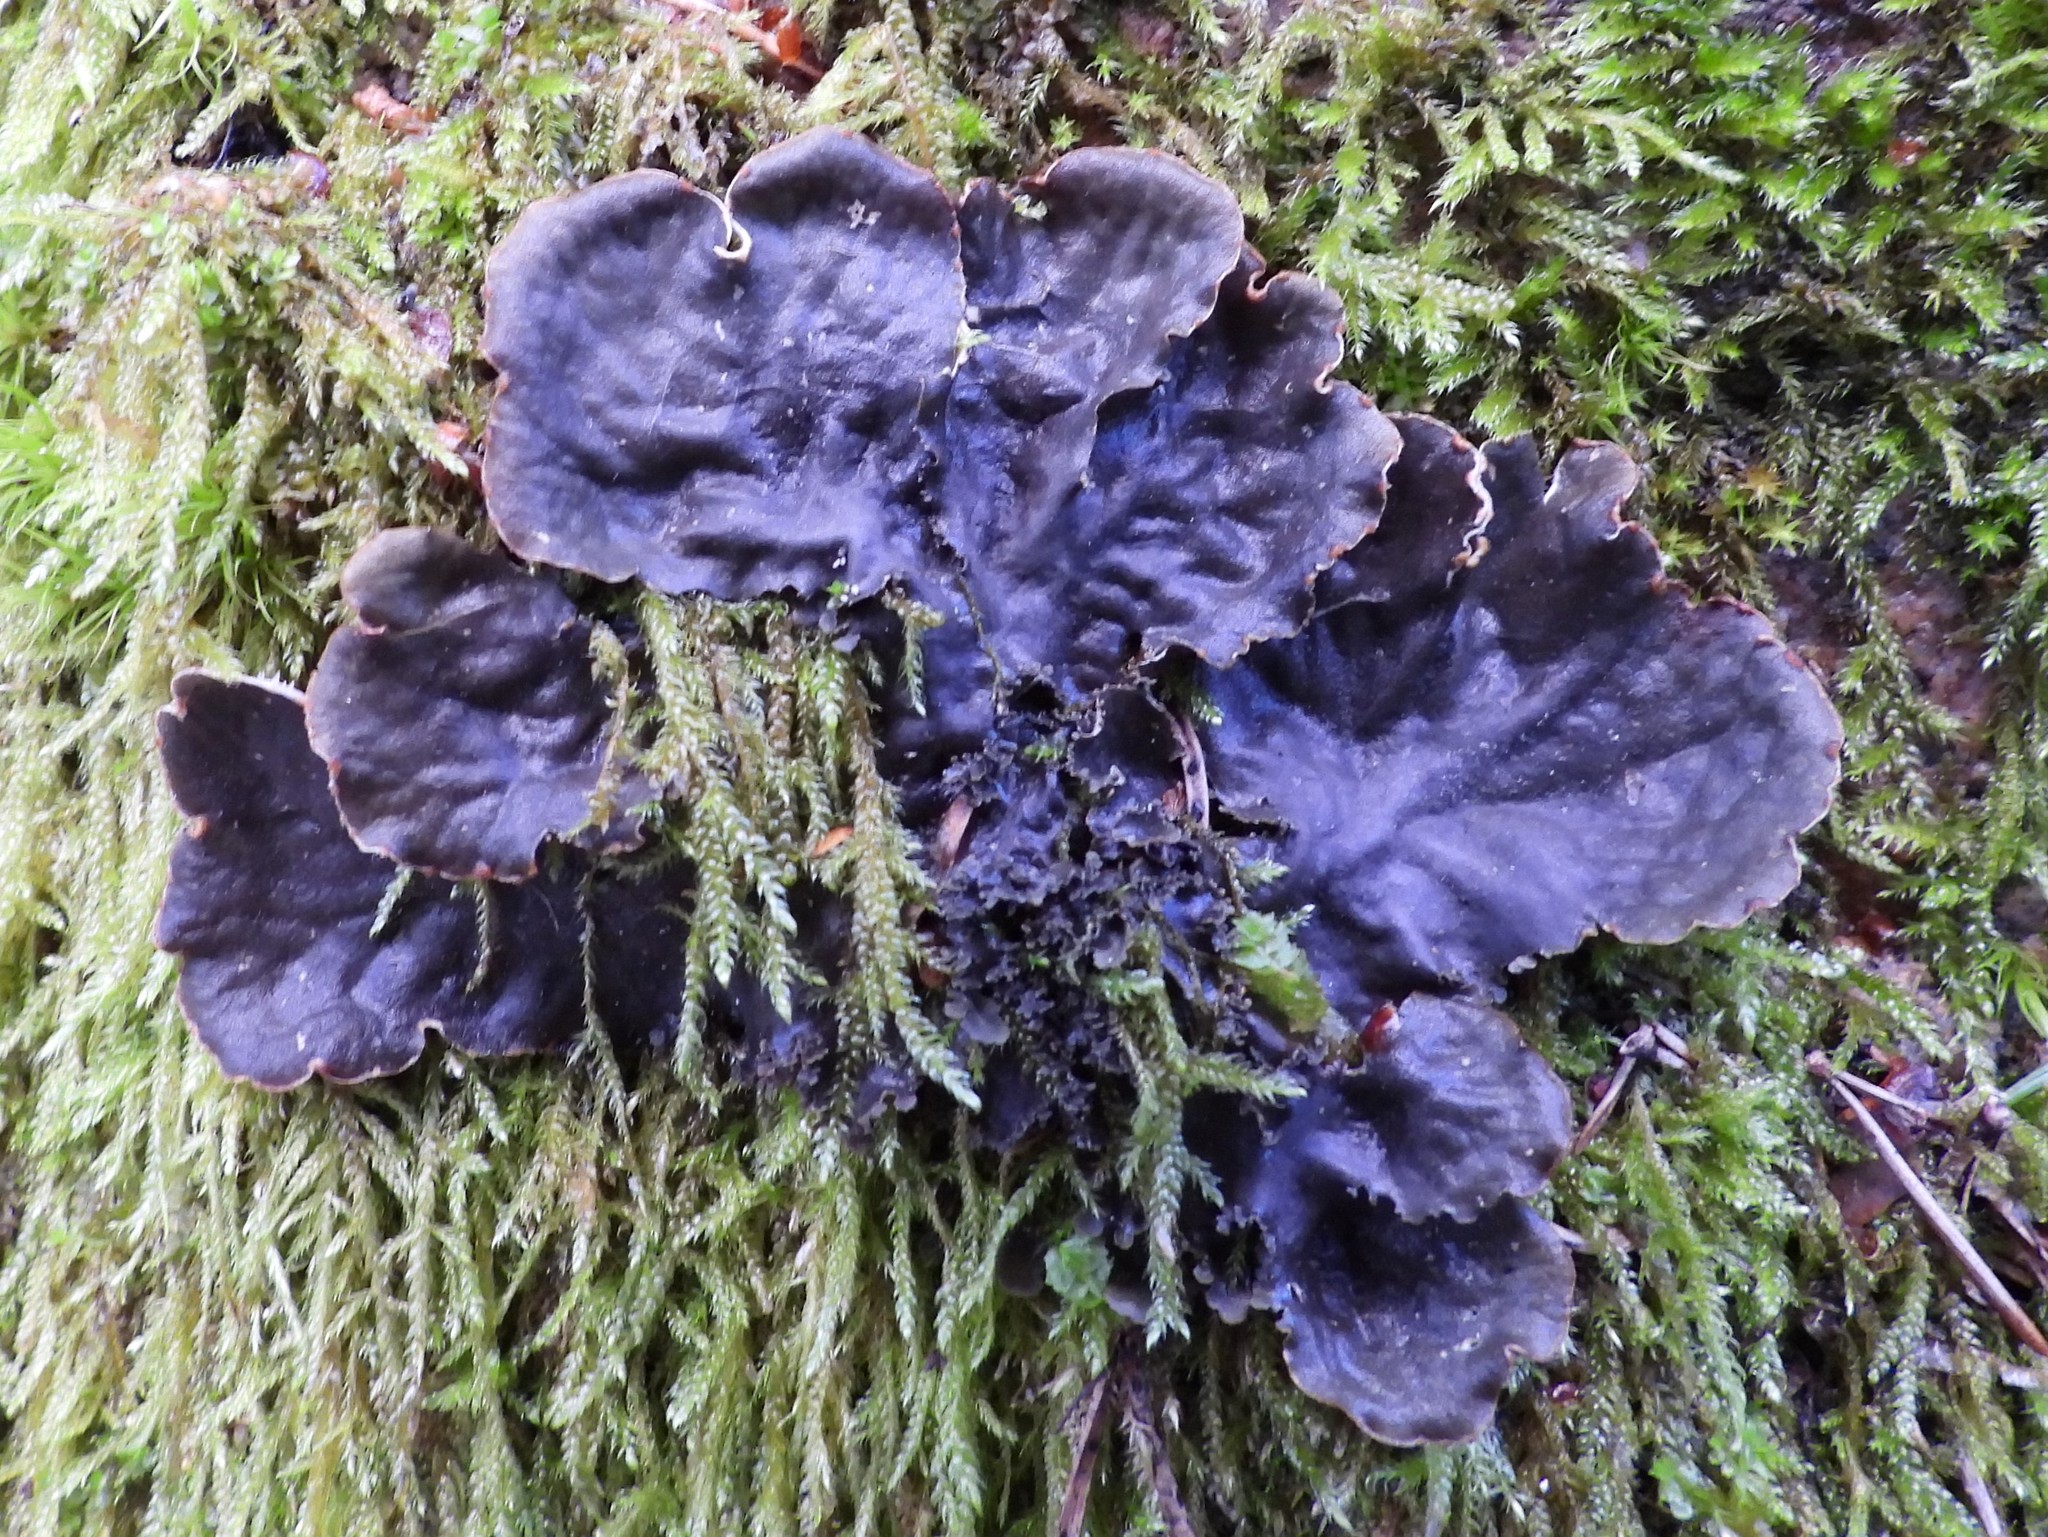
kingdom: Fungi
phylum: Ascomycota
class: Lecanoromycetes
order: Peltigerales
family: Peltigeraceae
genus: Peltigera
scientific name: Peltigera praetextata
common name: Scaly dog-lichen
